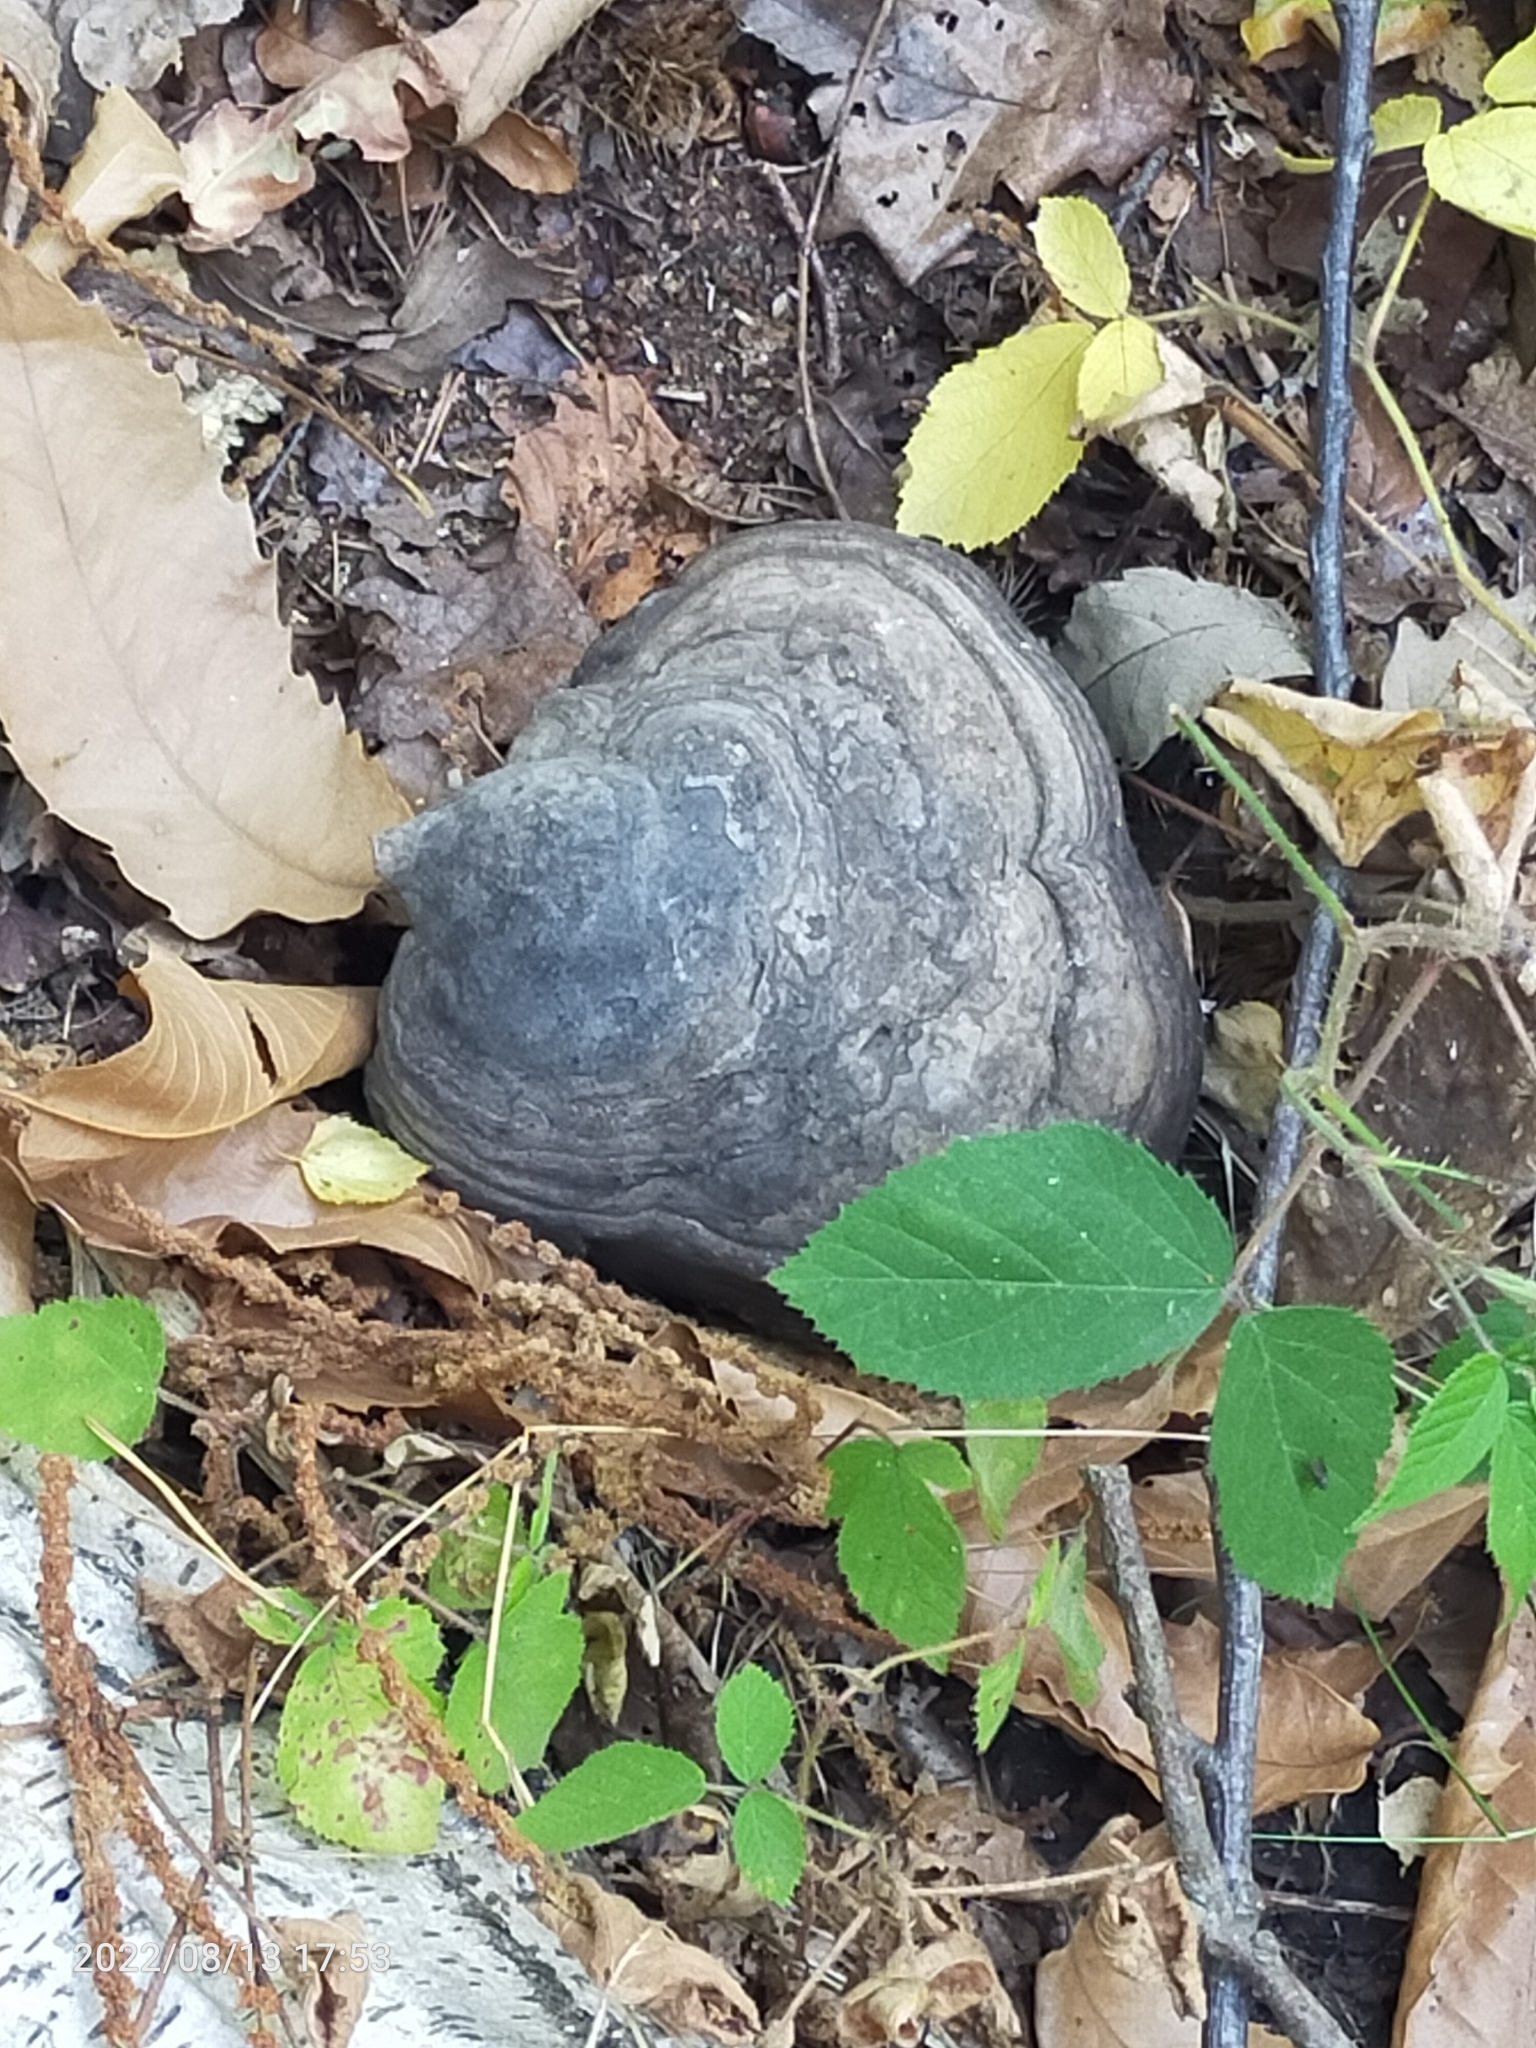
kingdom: Fungi
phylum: Basidiomycota
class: Agaricomycetes
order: Polyporales
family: Polyporaceae
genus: Fomes
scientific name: Fomes fomentarius
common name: Hoof fungus
